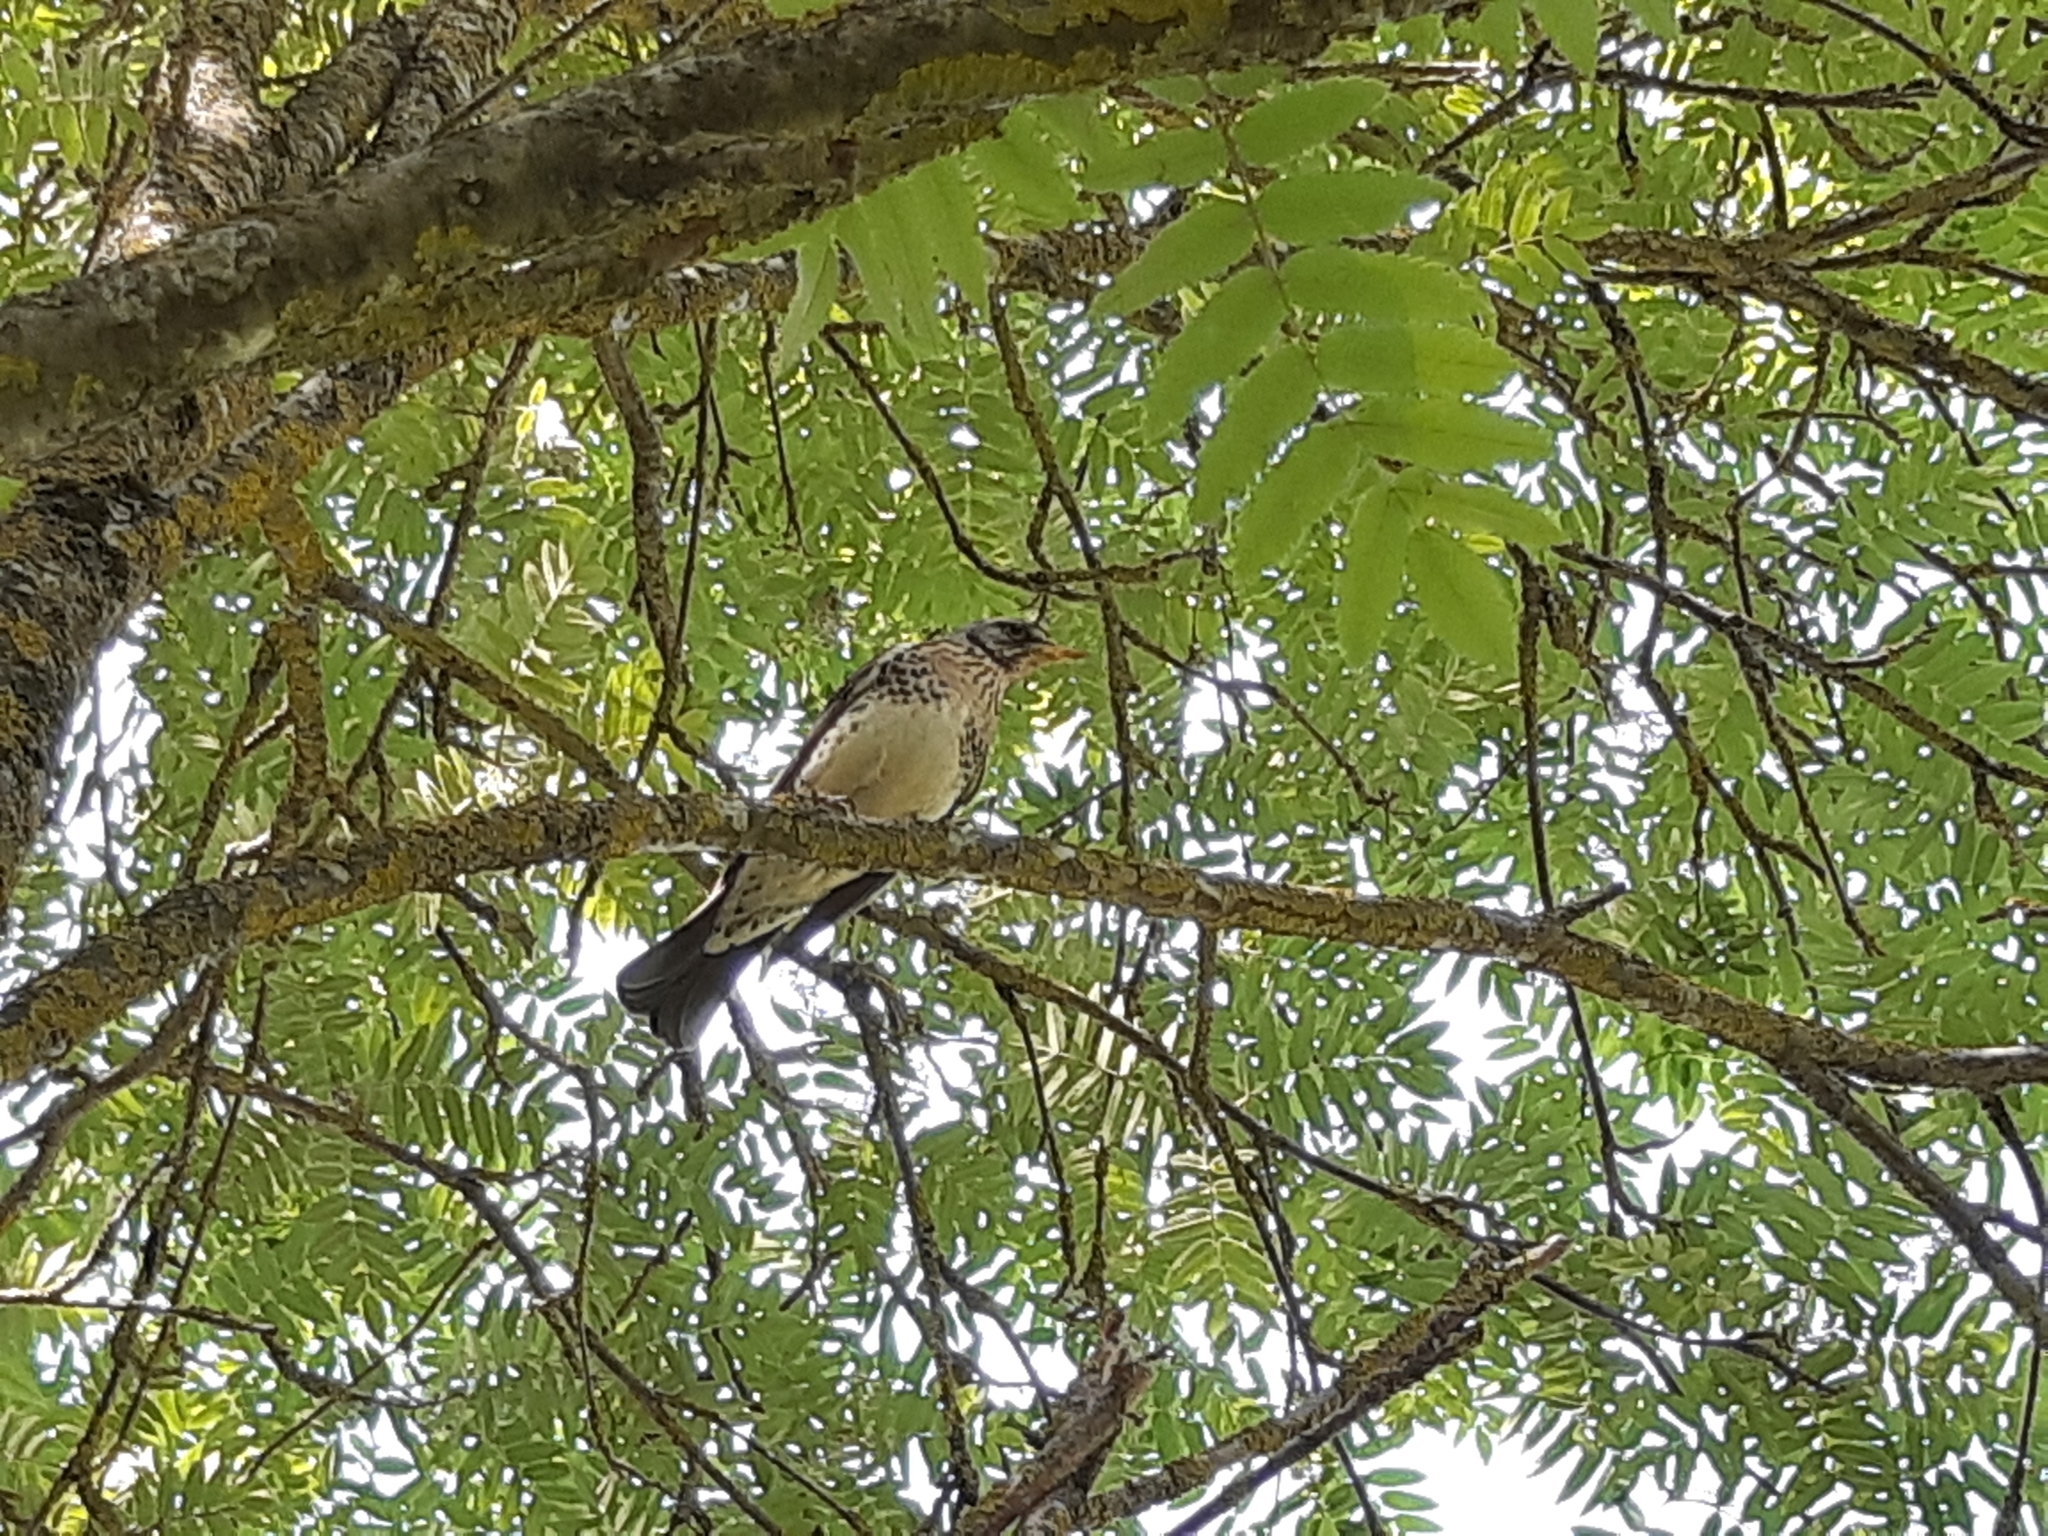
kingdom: Animalia
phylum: Chordata
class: Aves
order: Passeriformes
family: Turdidae
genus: Turdus
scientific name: Turdus pilaris
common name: Fieldfare
